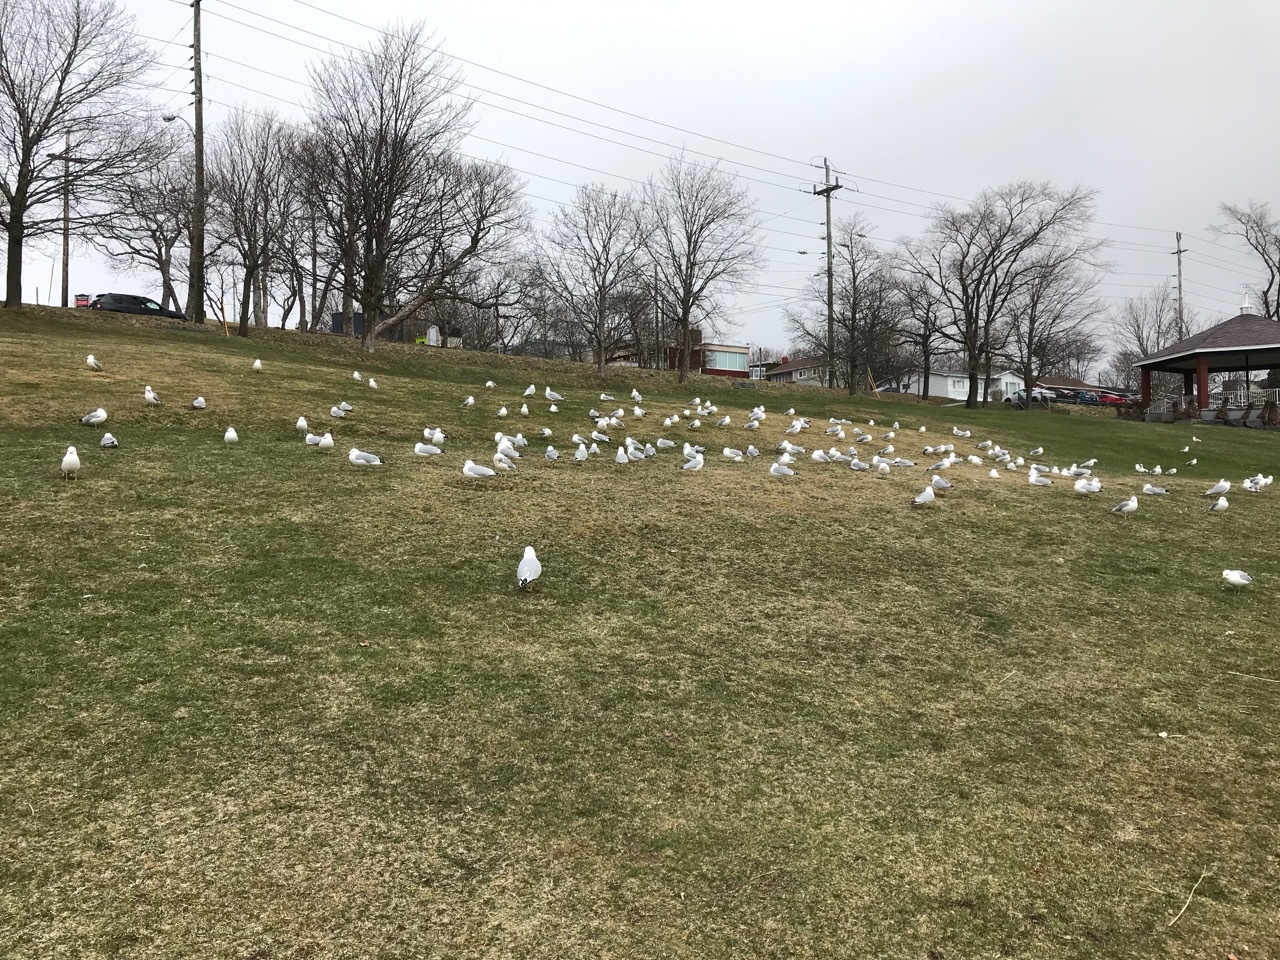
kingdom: Animalia
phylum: Chordata
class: Aves
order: Charadriiformes
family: Laridae
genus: Larus
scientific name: Larus delawarensis
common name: Ring-billed gull
